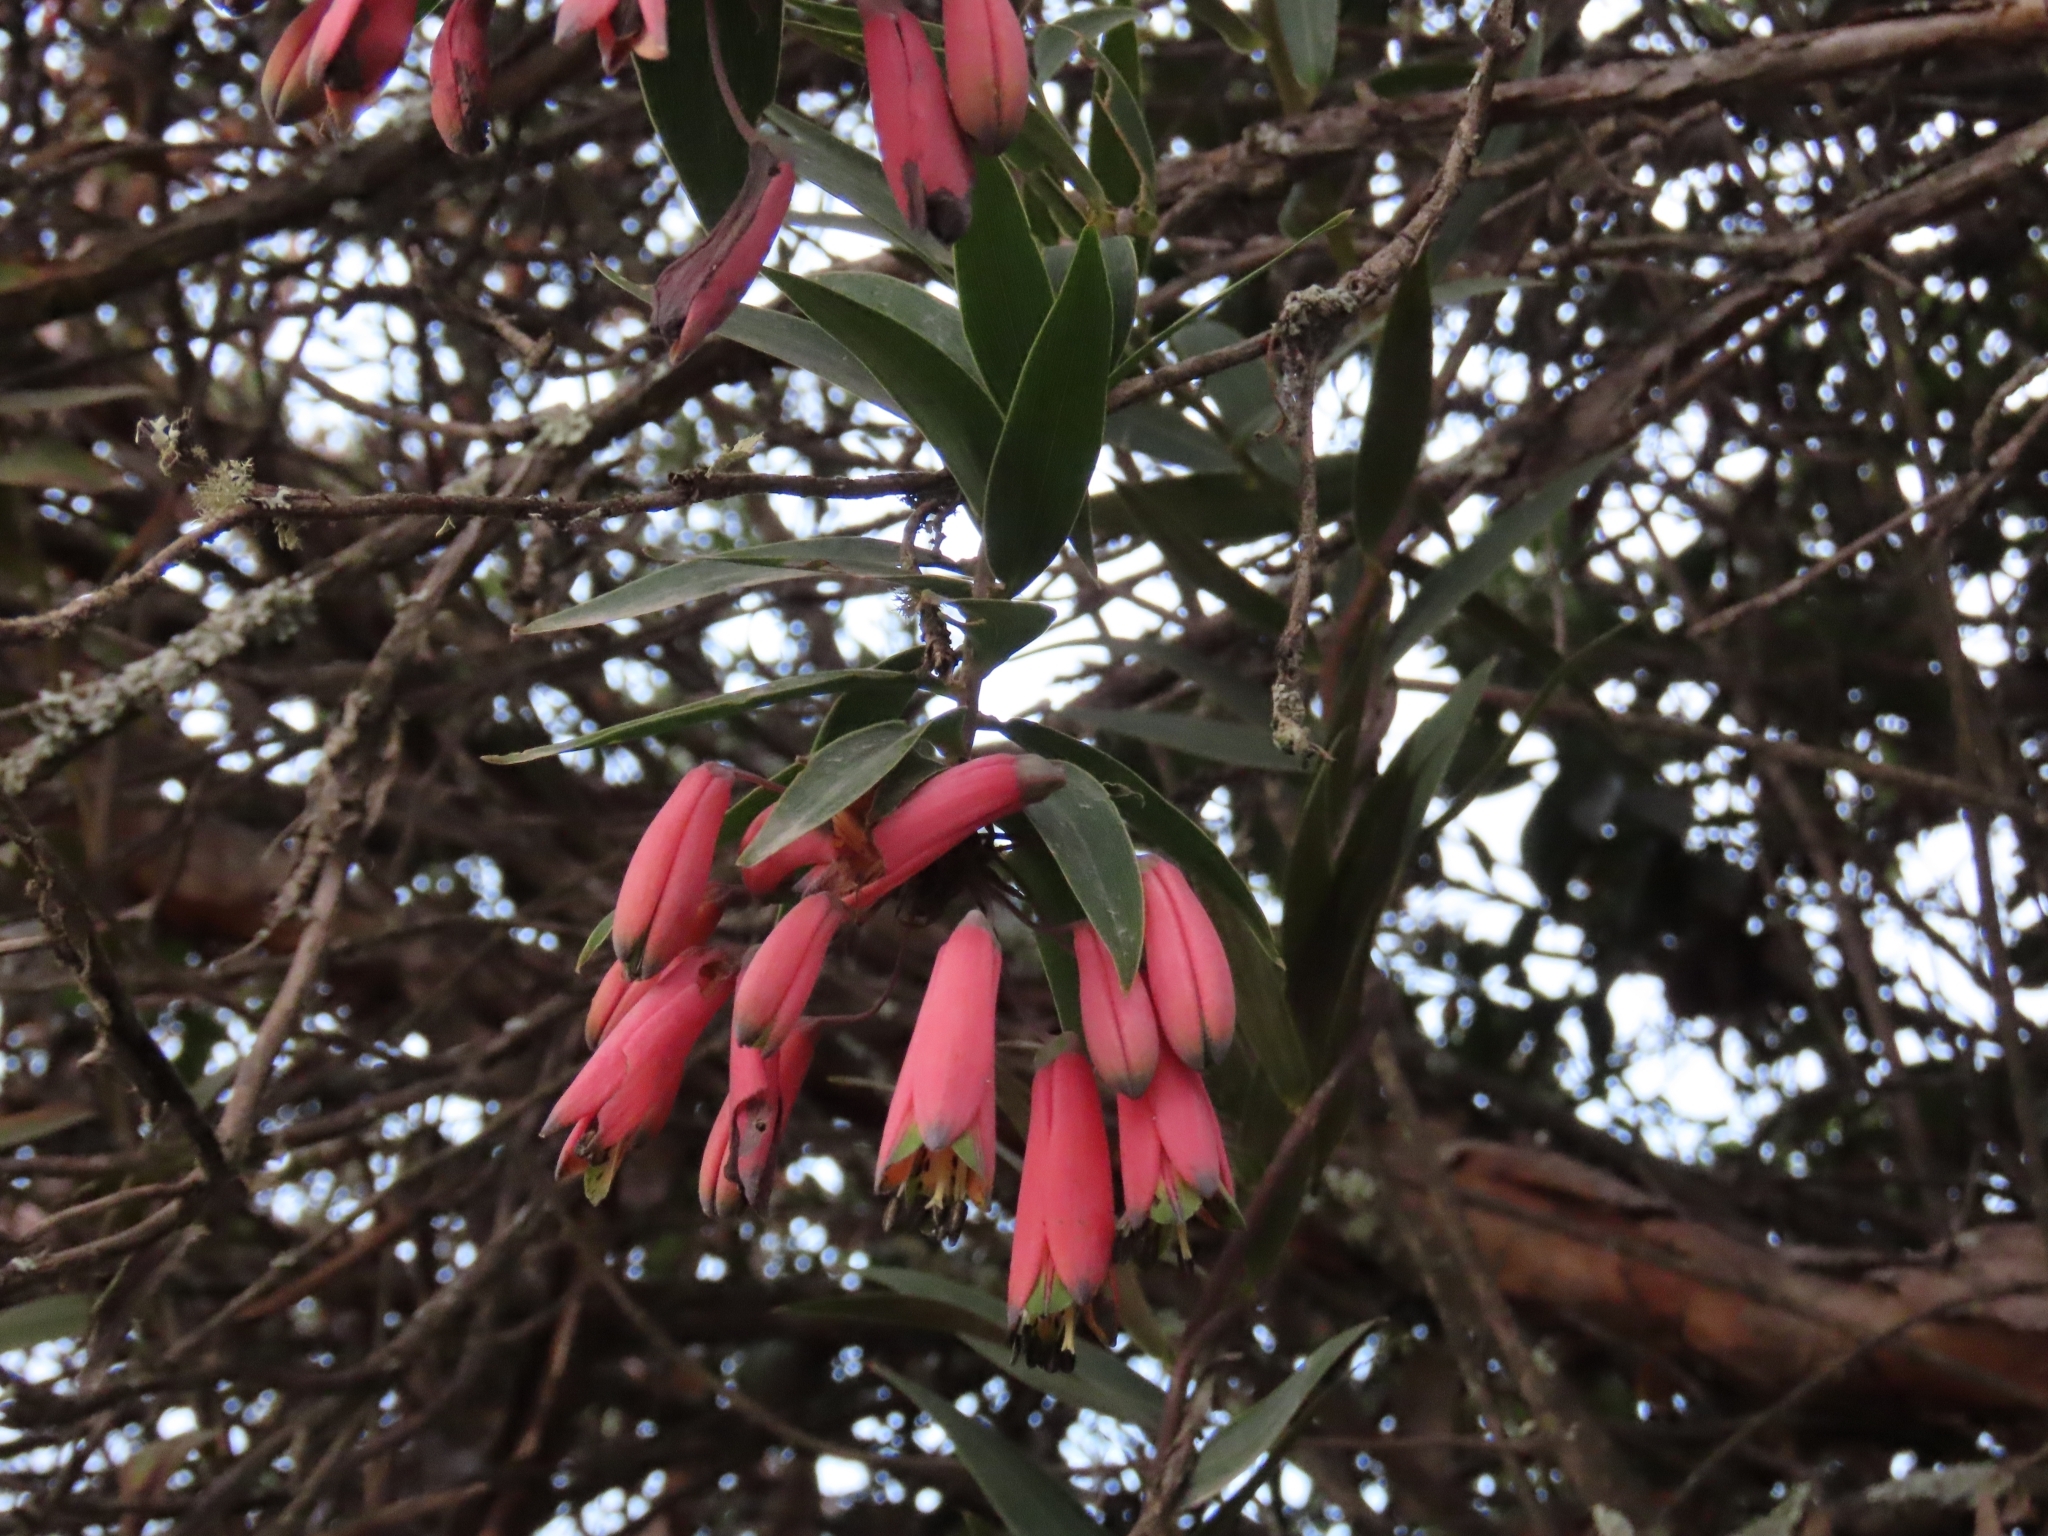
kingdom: Plantae
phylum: Tracheophyta
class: Liliopsida
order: Liliales
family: Alstroemeriaceae
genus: Bomarea
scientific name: Bomarea goniocaulon
